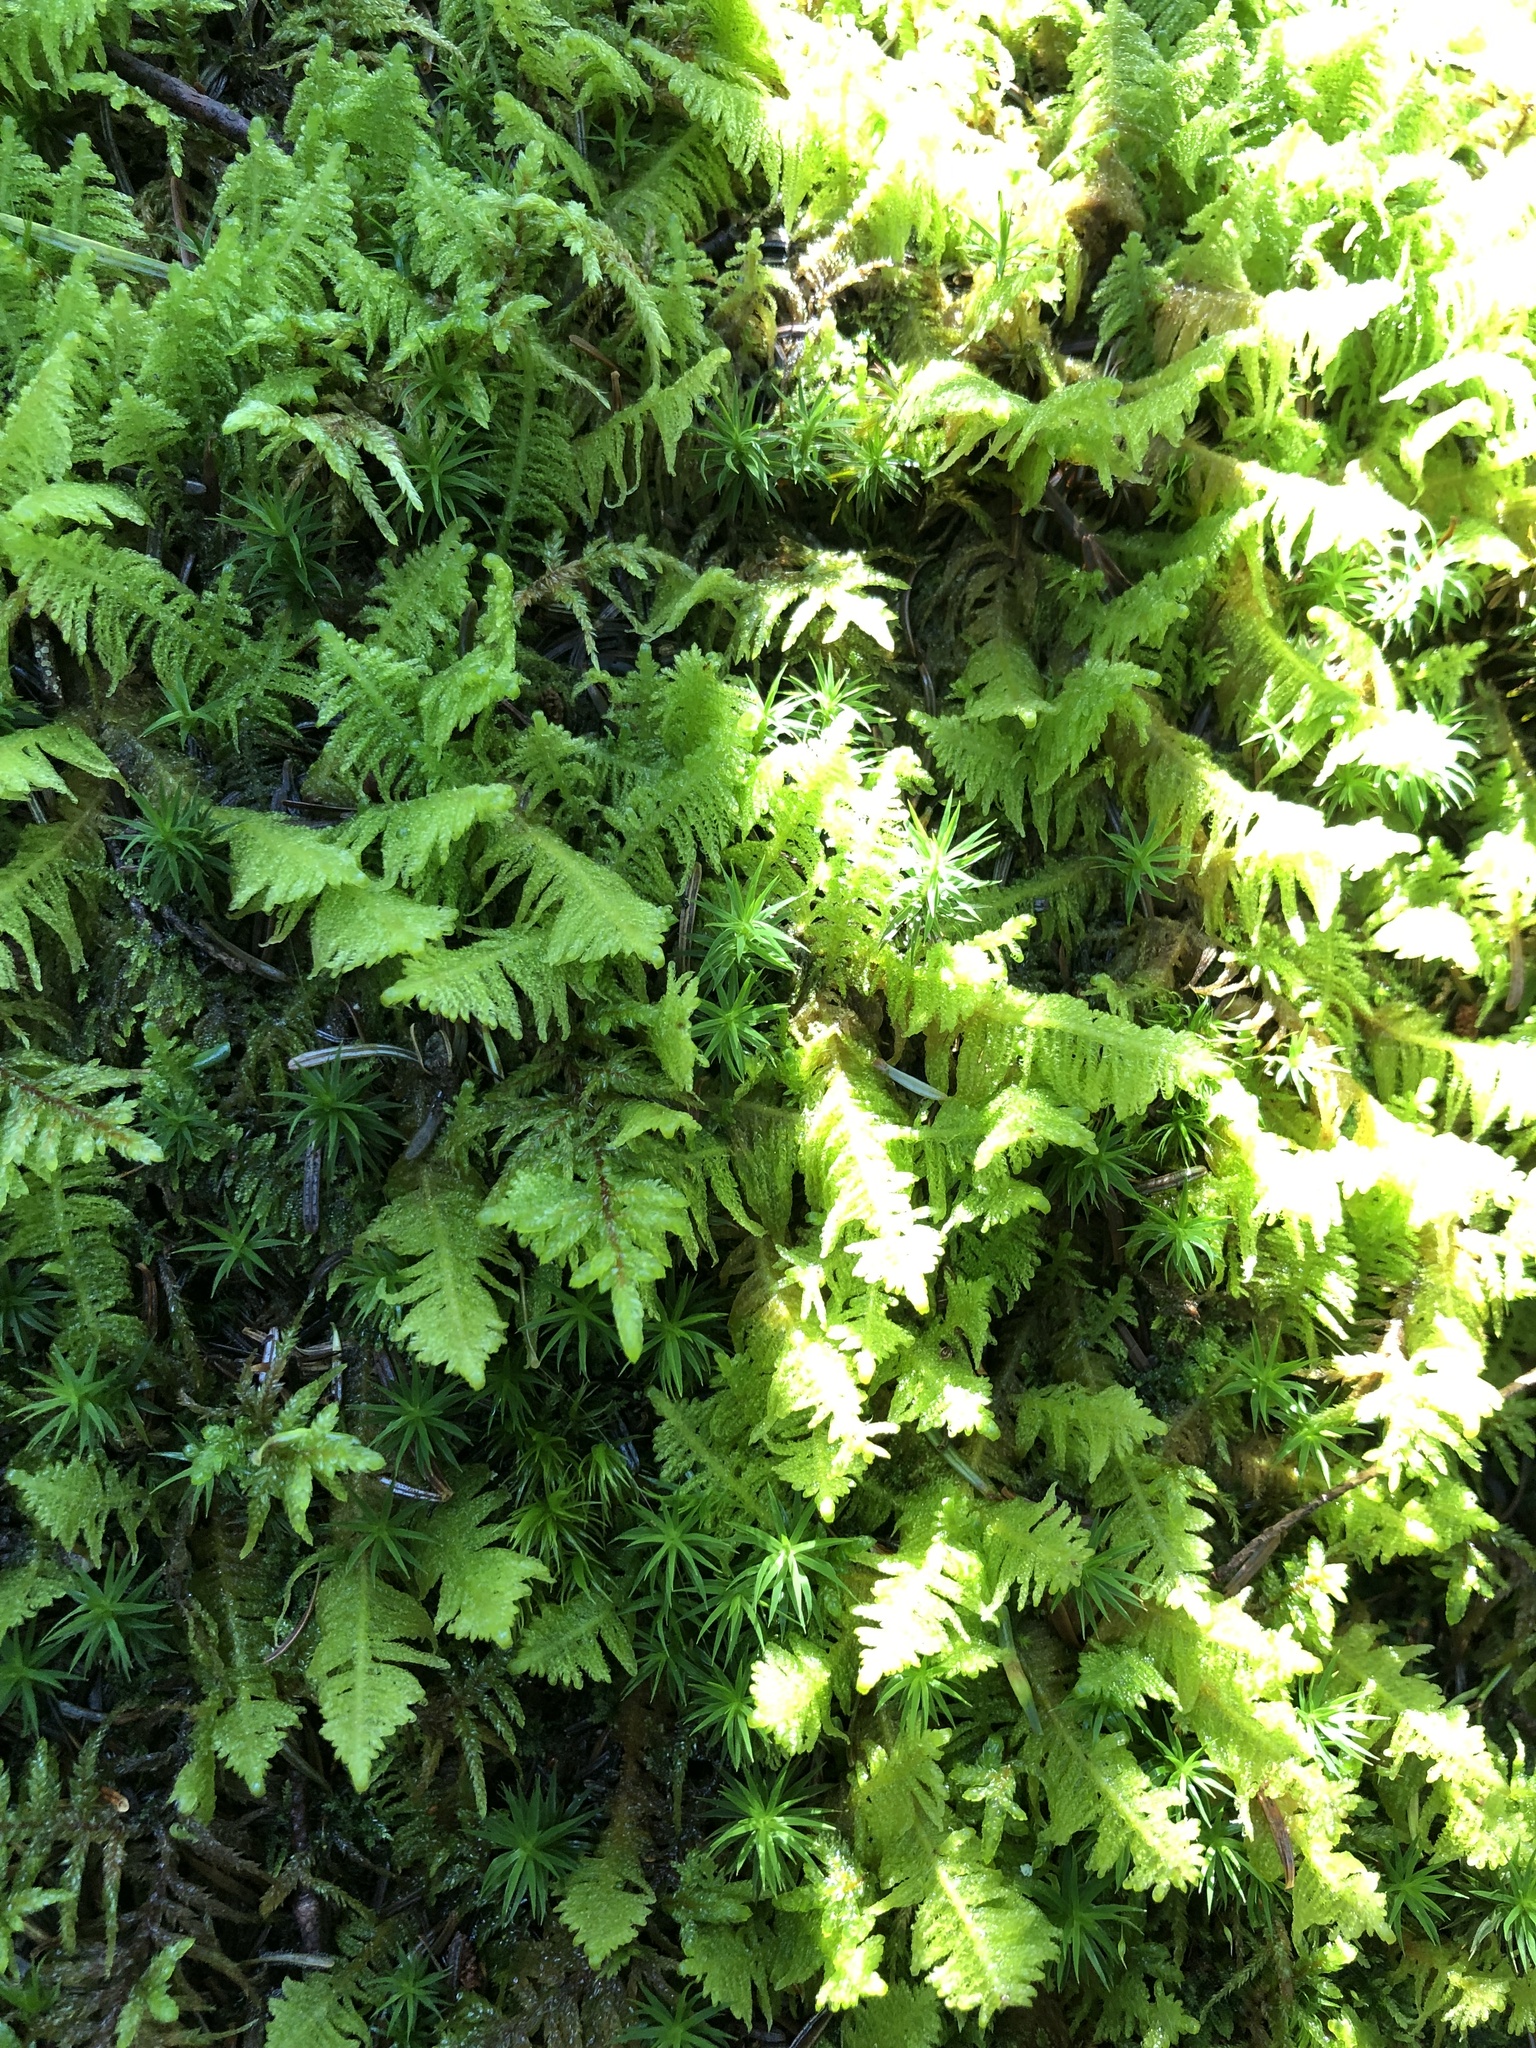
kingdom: Plantae
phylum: Bryophyta
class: Bryopsida
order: Hypnales
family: Pylaisiaceae
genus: Ptilium
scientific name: Ptilium crista-castrensis
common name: Knight's plume moss
